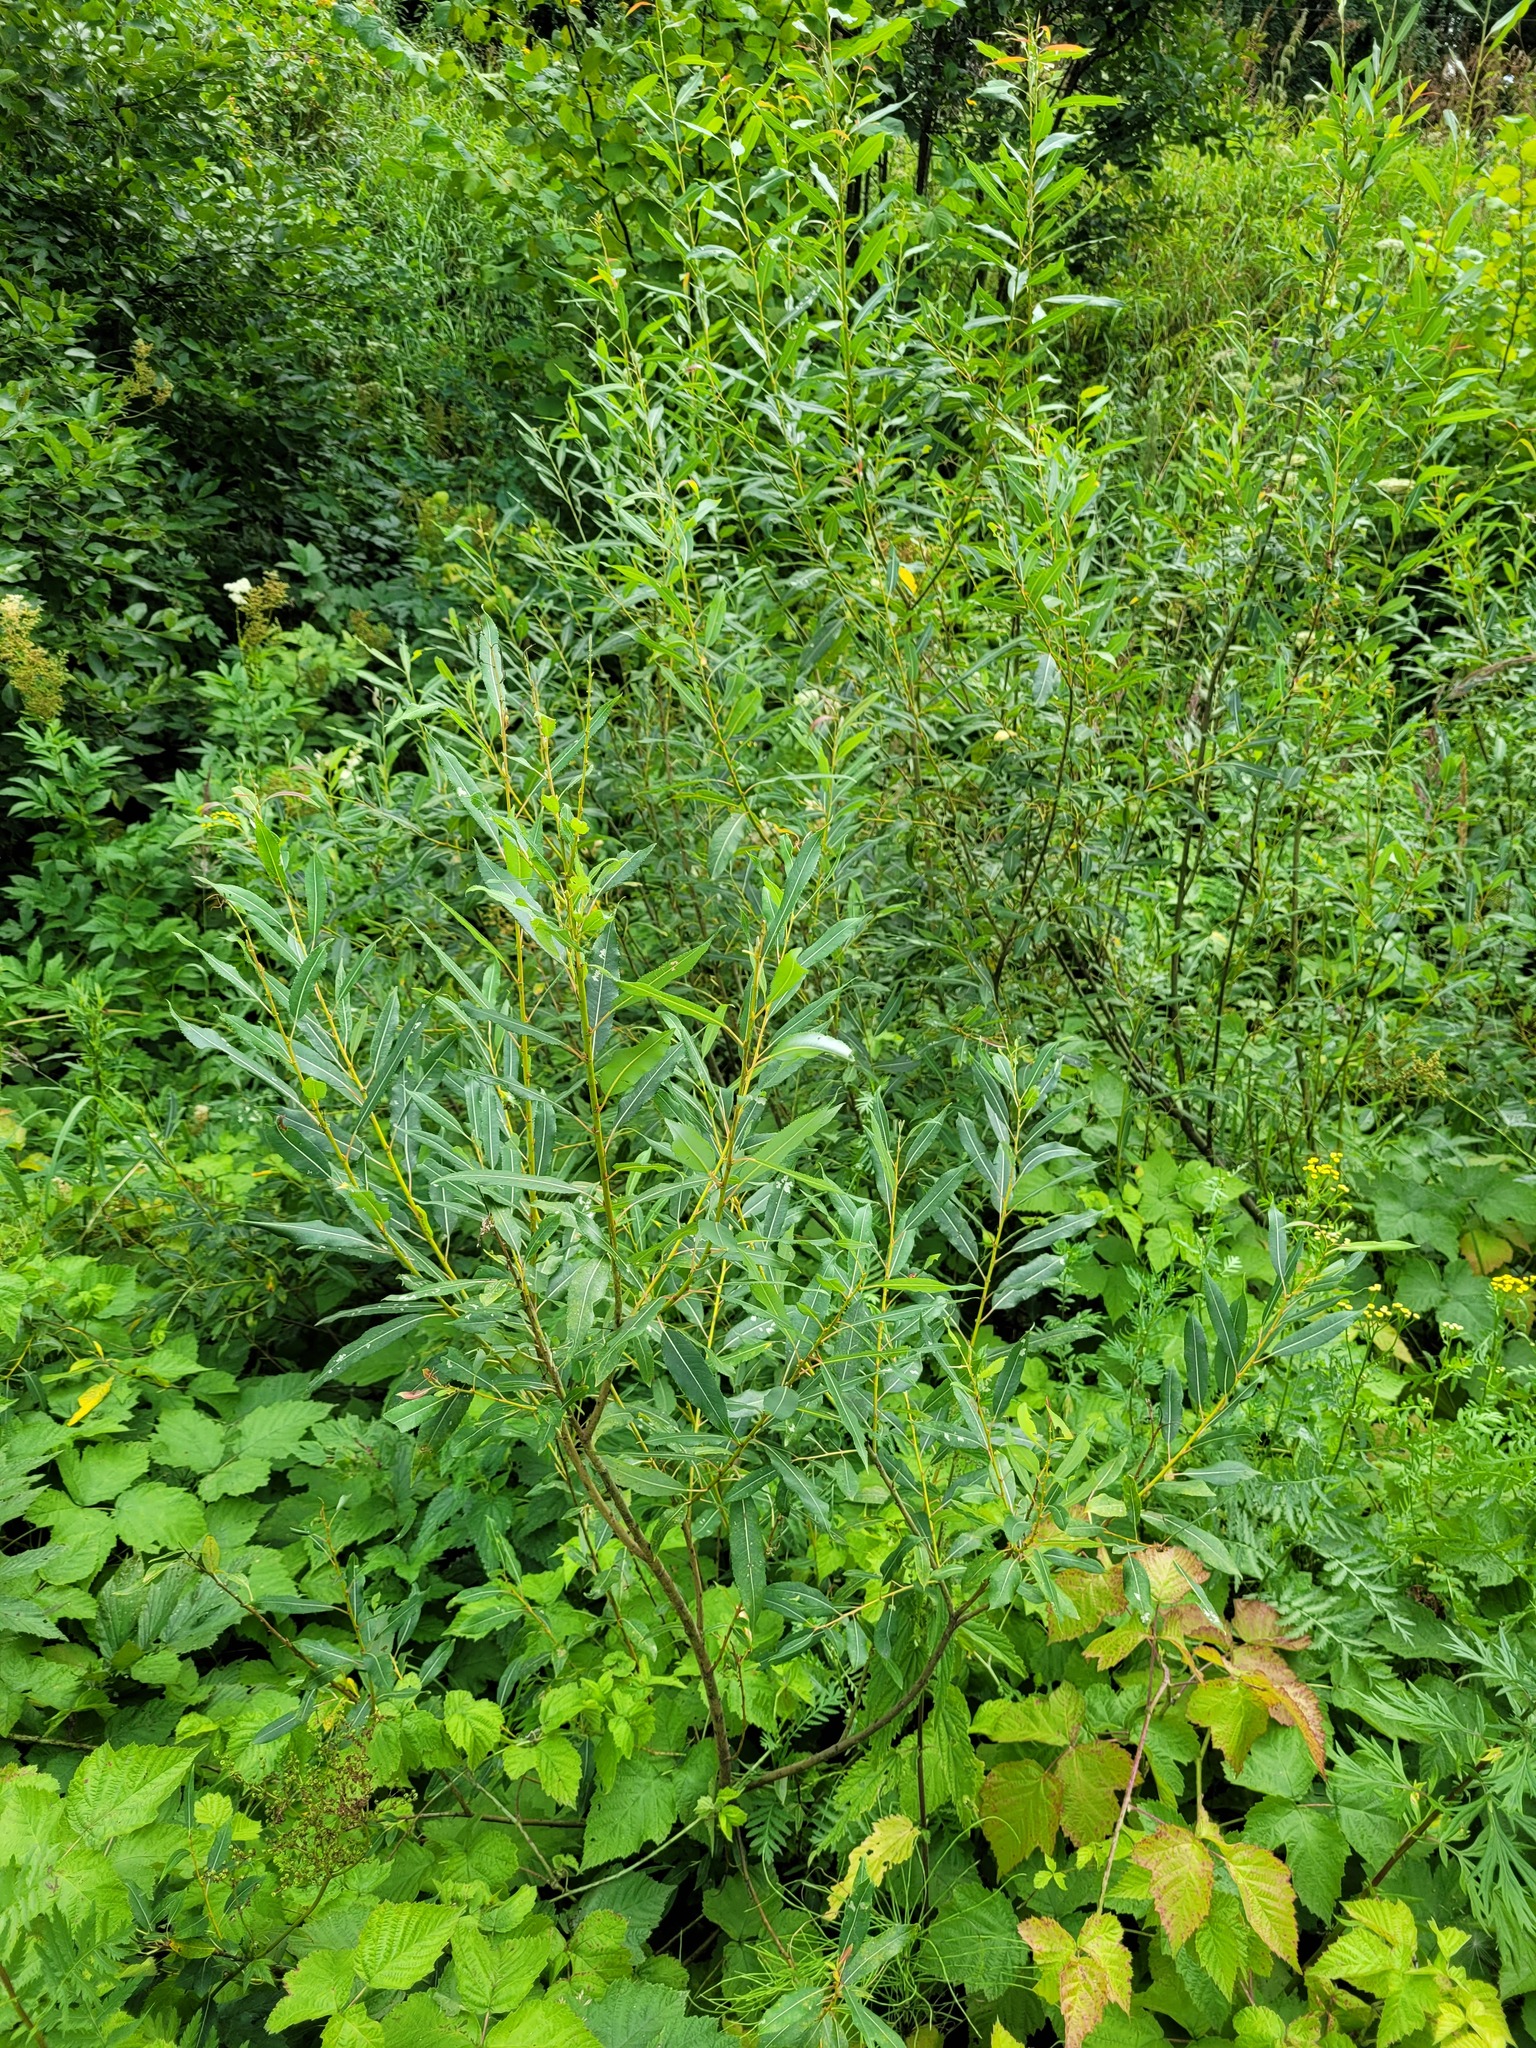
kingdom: Plantae
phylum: Tracheophyta
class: Magnoliopsida
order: Malpighiales
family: Salicaceae
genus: Salix
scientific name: Salix triandra
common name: Almond willow
